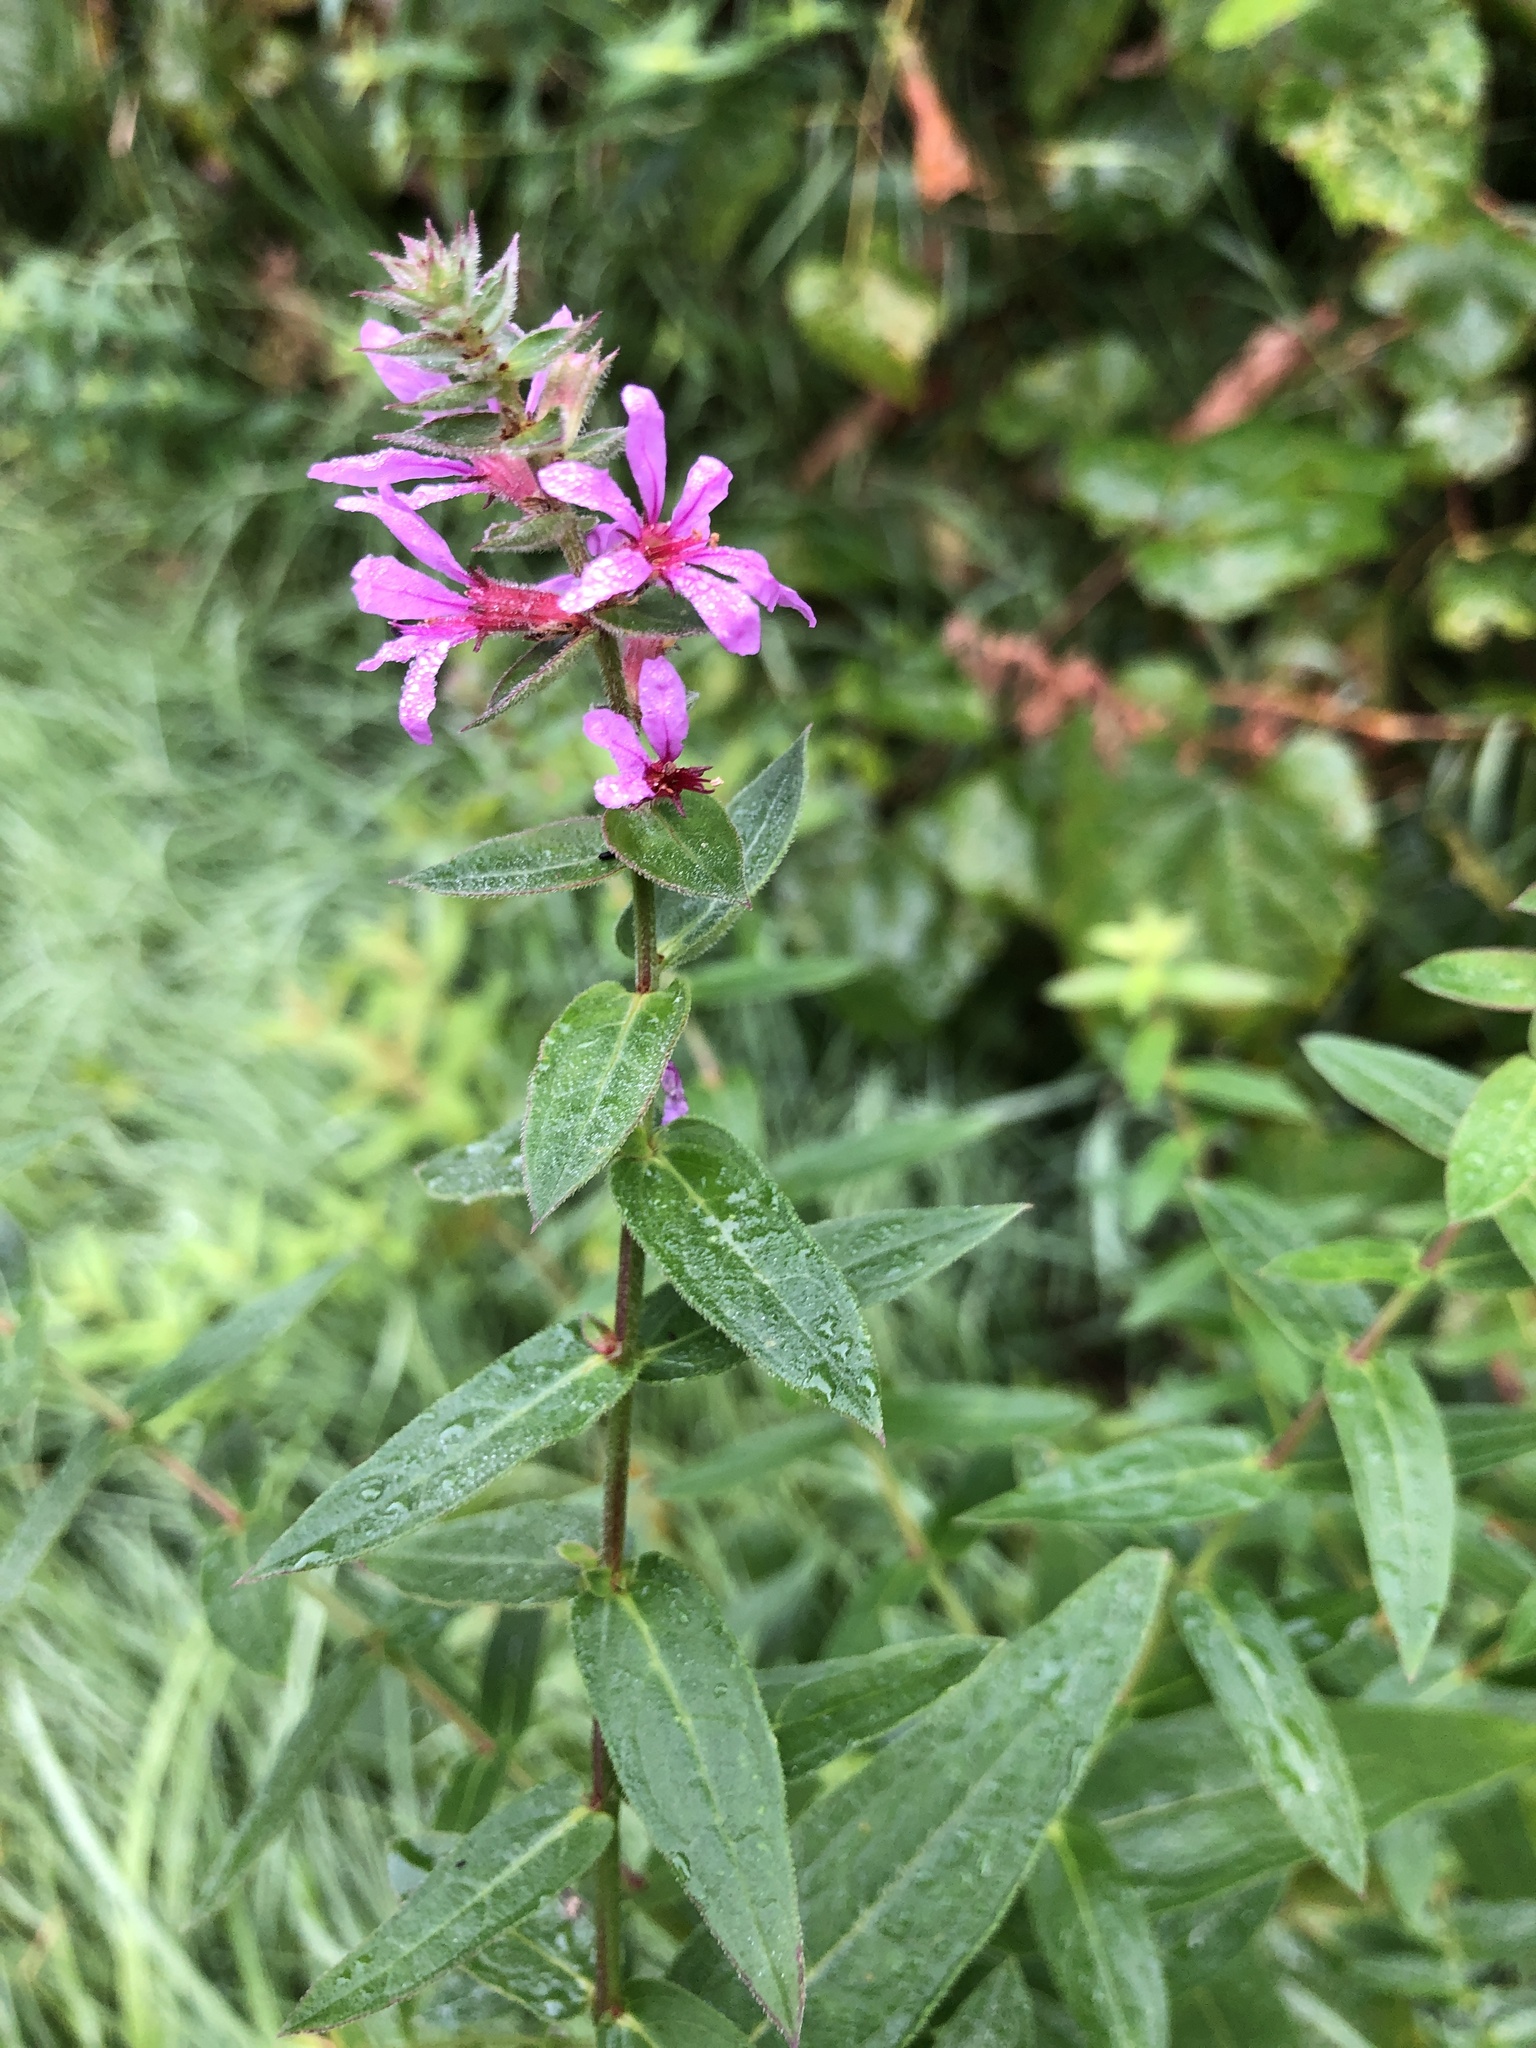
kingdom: Plantae
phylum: Tracheophyta
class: Magnoliopsida
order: Myrtales
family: Lythraceae
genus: Lythrum
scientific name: Lythrum salicaria
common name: Purple loosestrife
